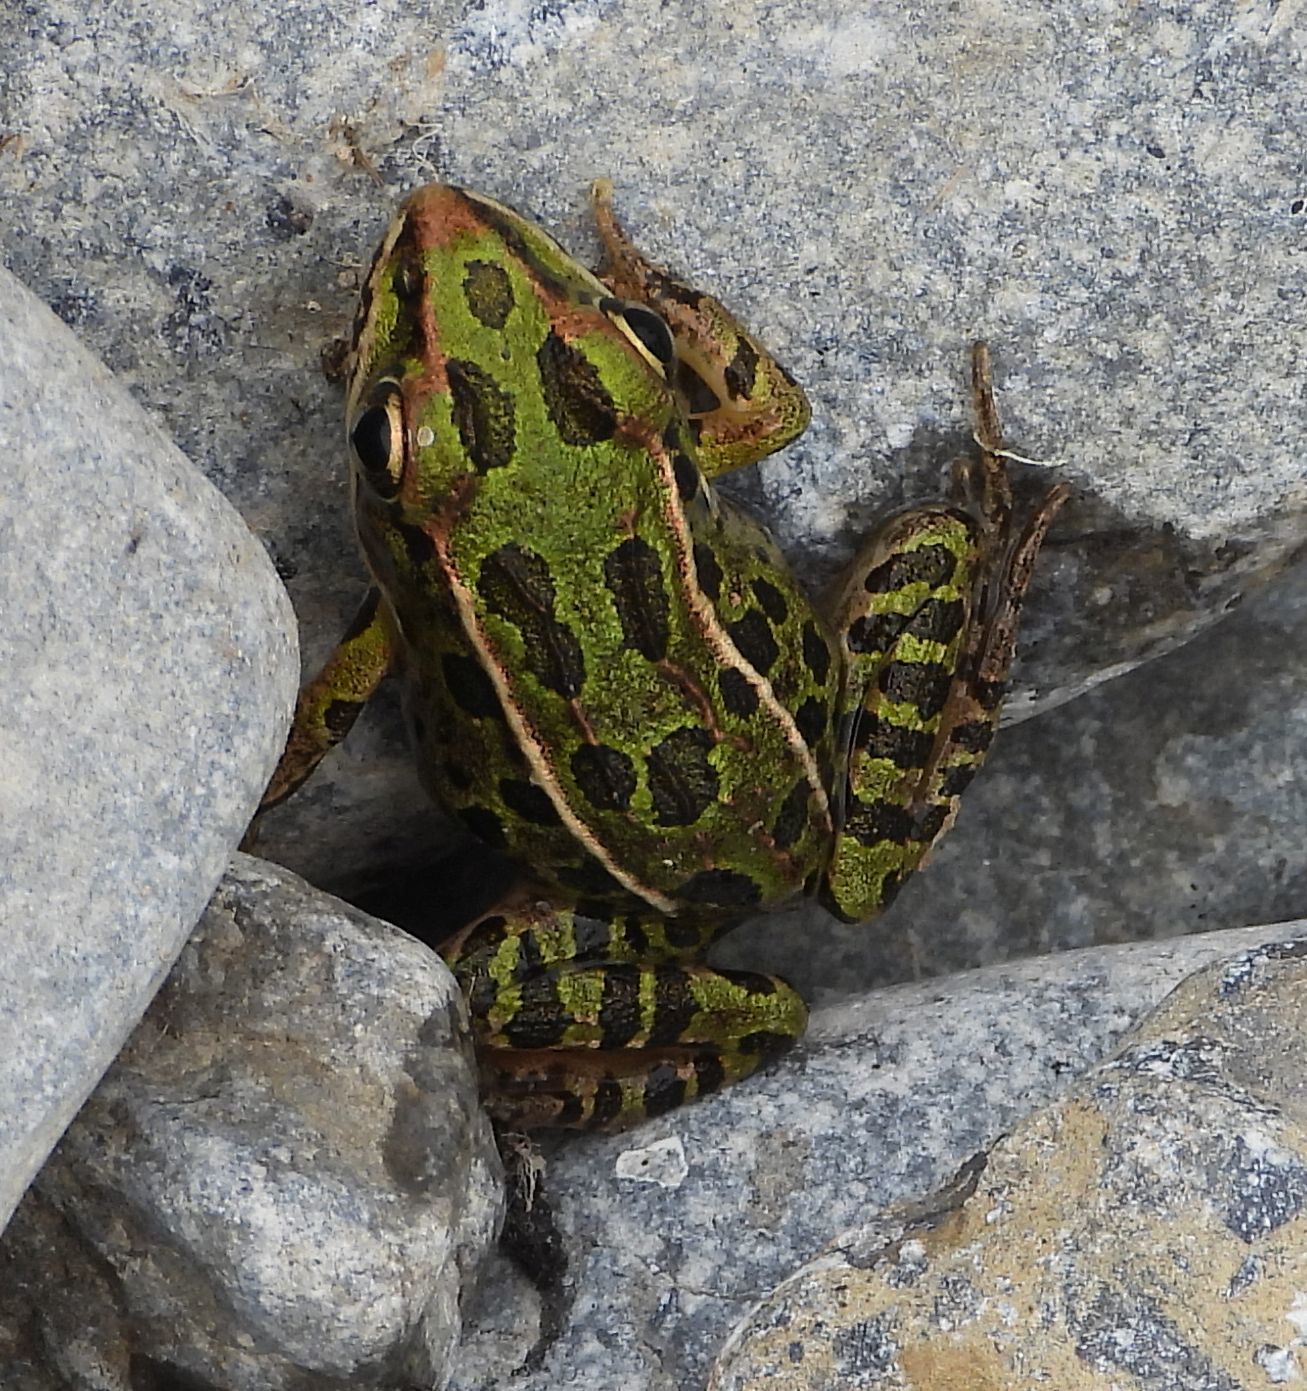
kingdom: Animalia
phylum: Chordata
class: Amphibia
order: Anura
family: Ranidae
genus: Lithobates
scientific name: Lithobates pipiens
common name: Northern leopard frog
